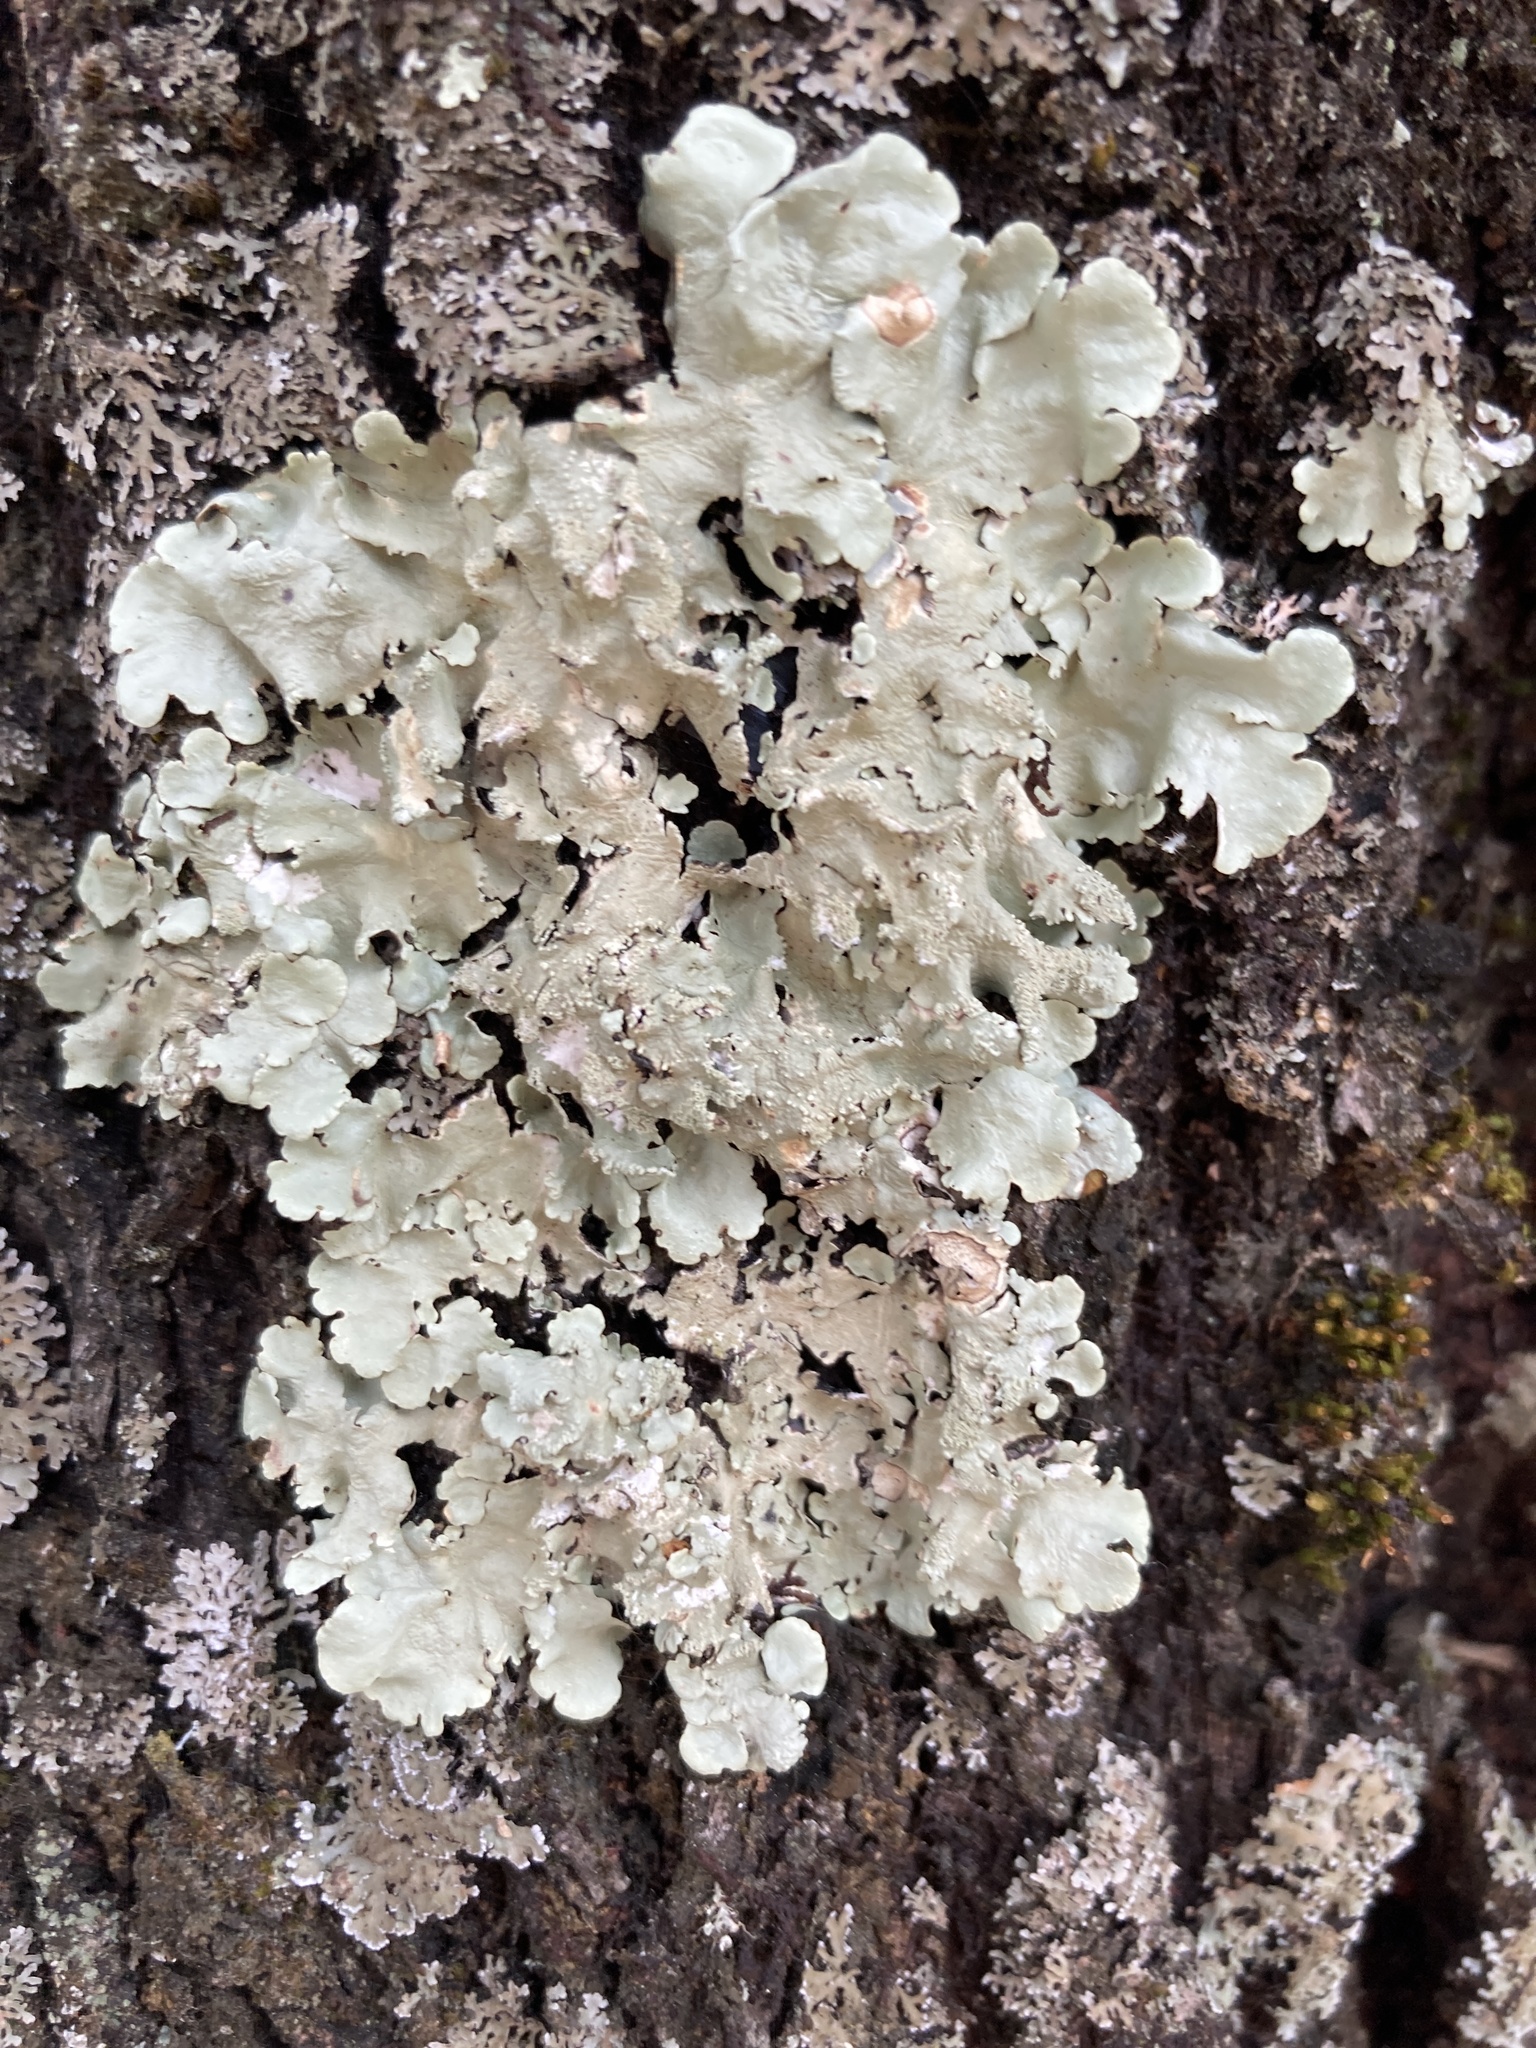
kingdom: Fungi
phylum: Ascomycota
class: Lecanoromycetes
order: Lecanorales
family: Parmeliaceae
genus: Flavoparmelia
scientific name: Flavoparmelia caperata
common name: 40-mile per hour lichen
